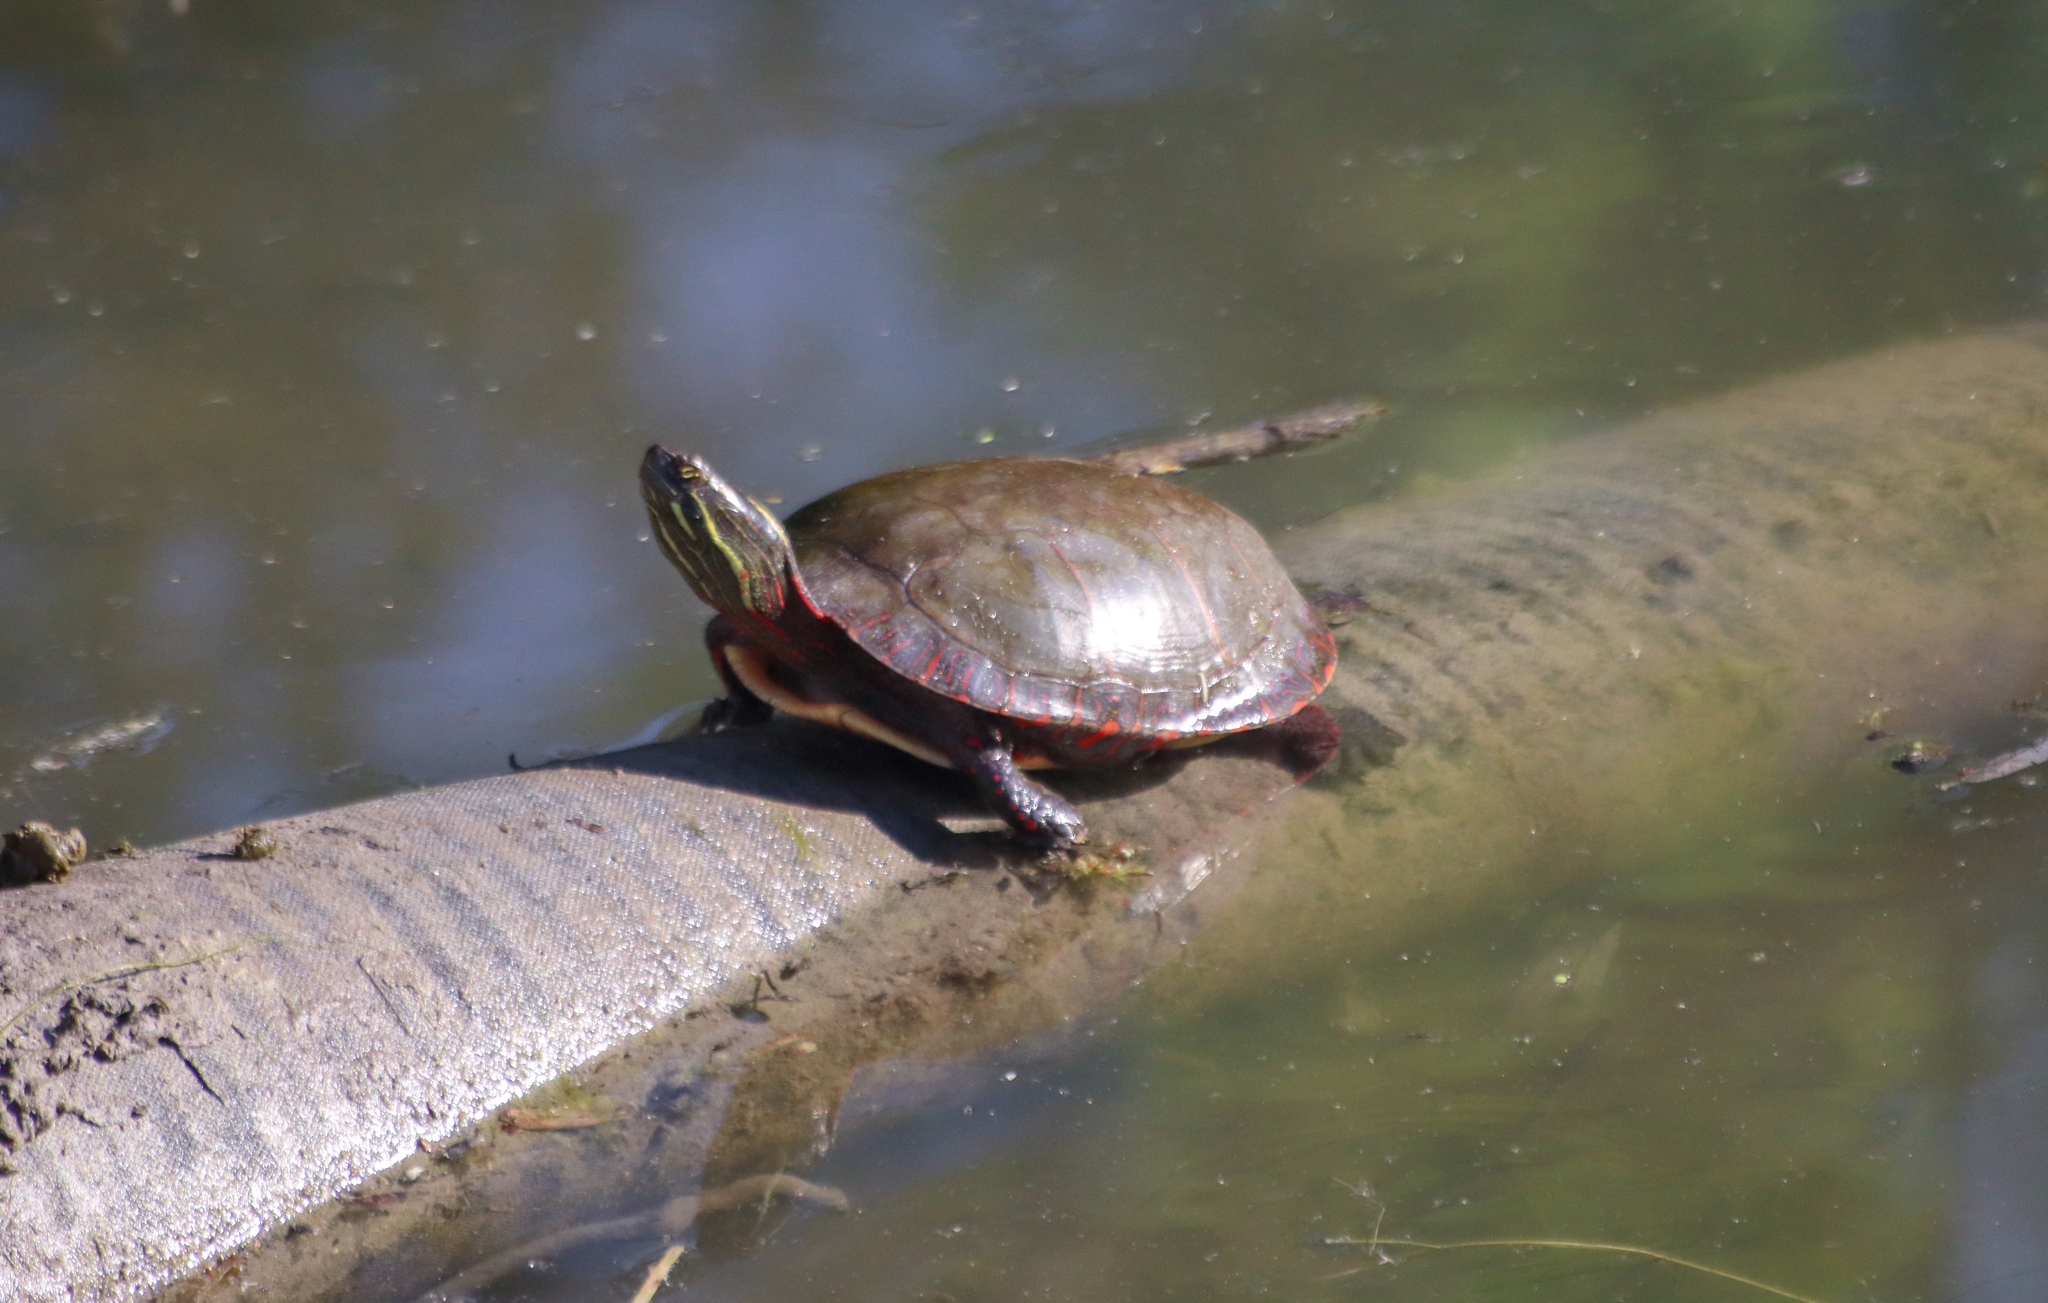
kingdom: Animalia
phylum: Chordata
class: Testudines
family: Emydidae
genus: Chrysemys
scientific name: Chrysemys picta
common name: Painted turtle
